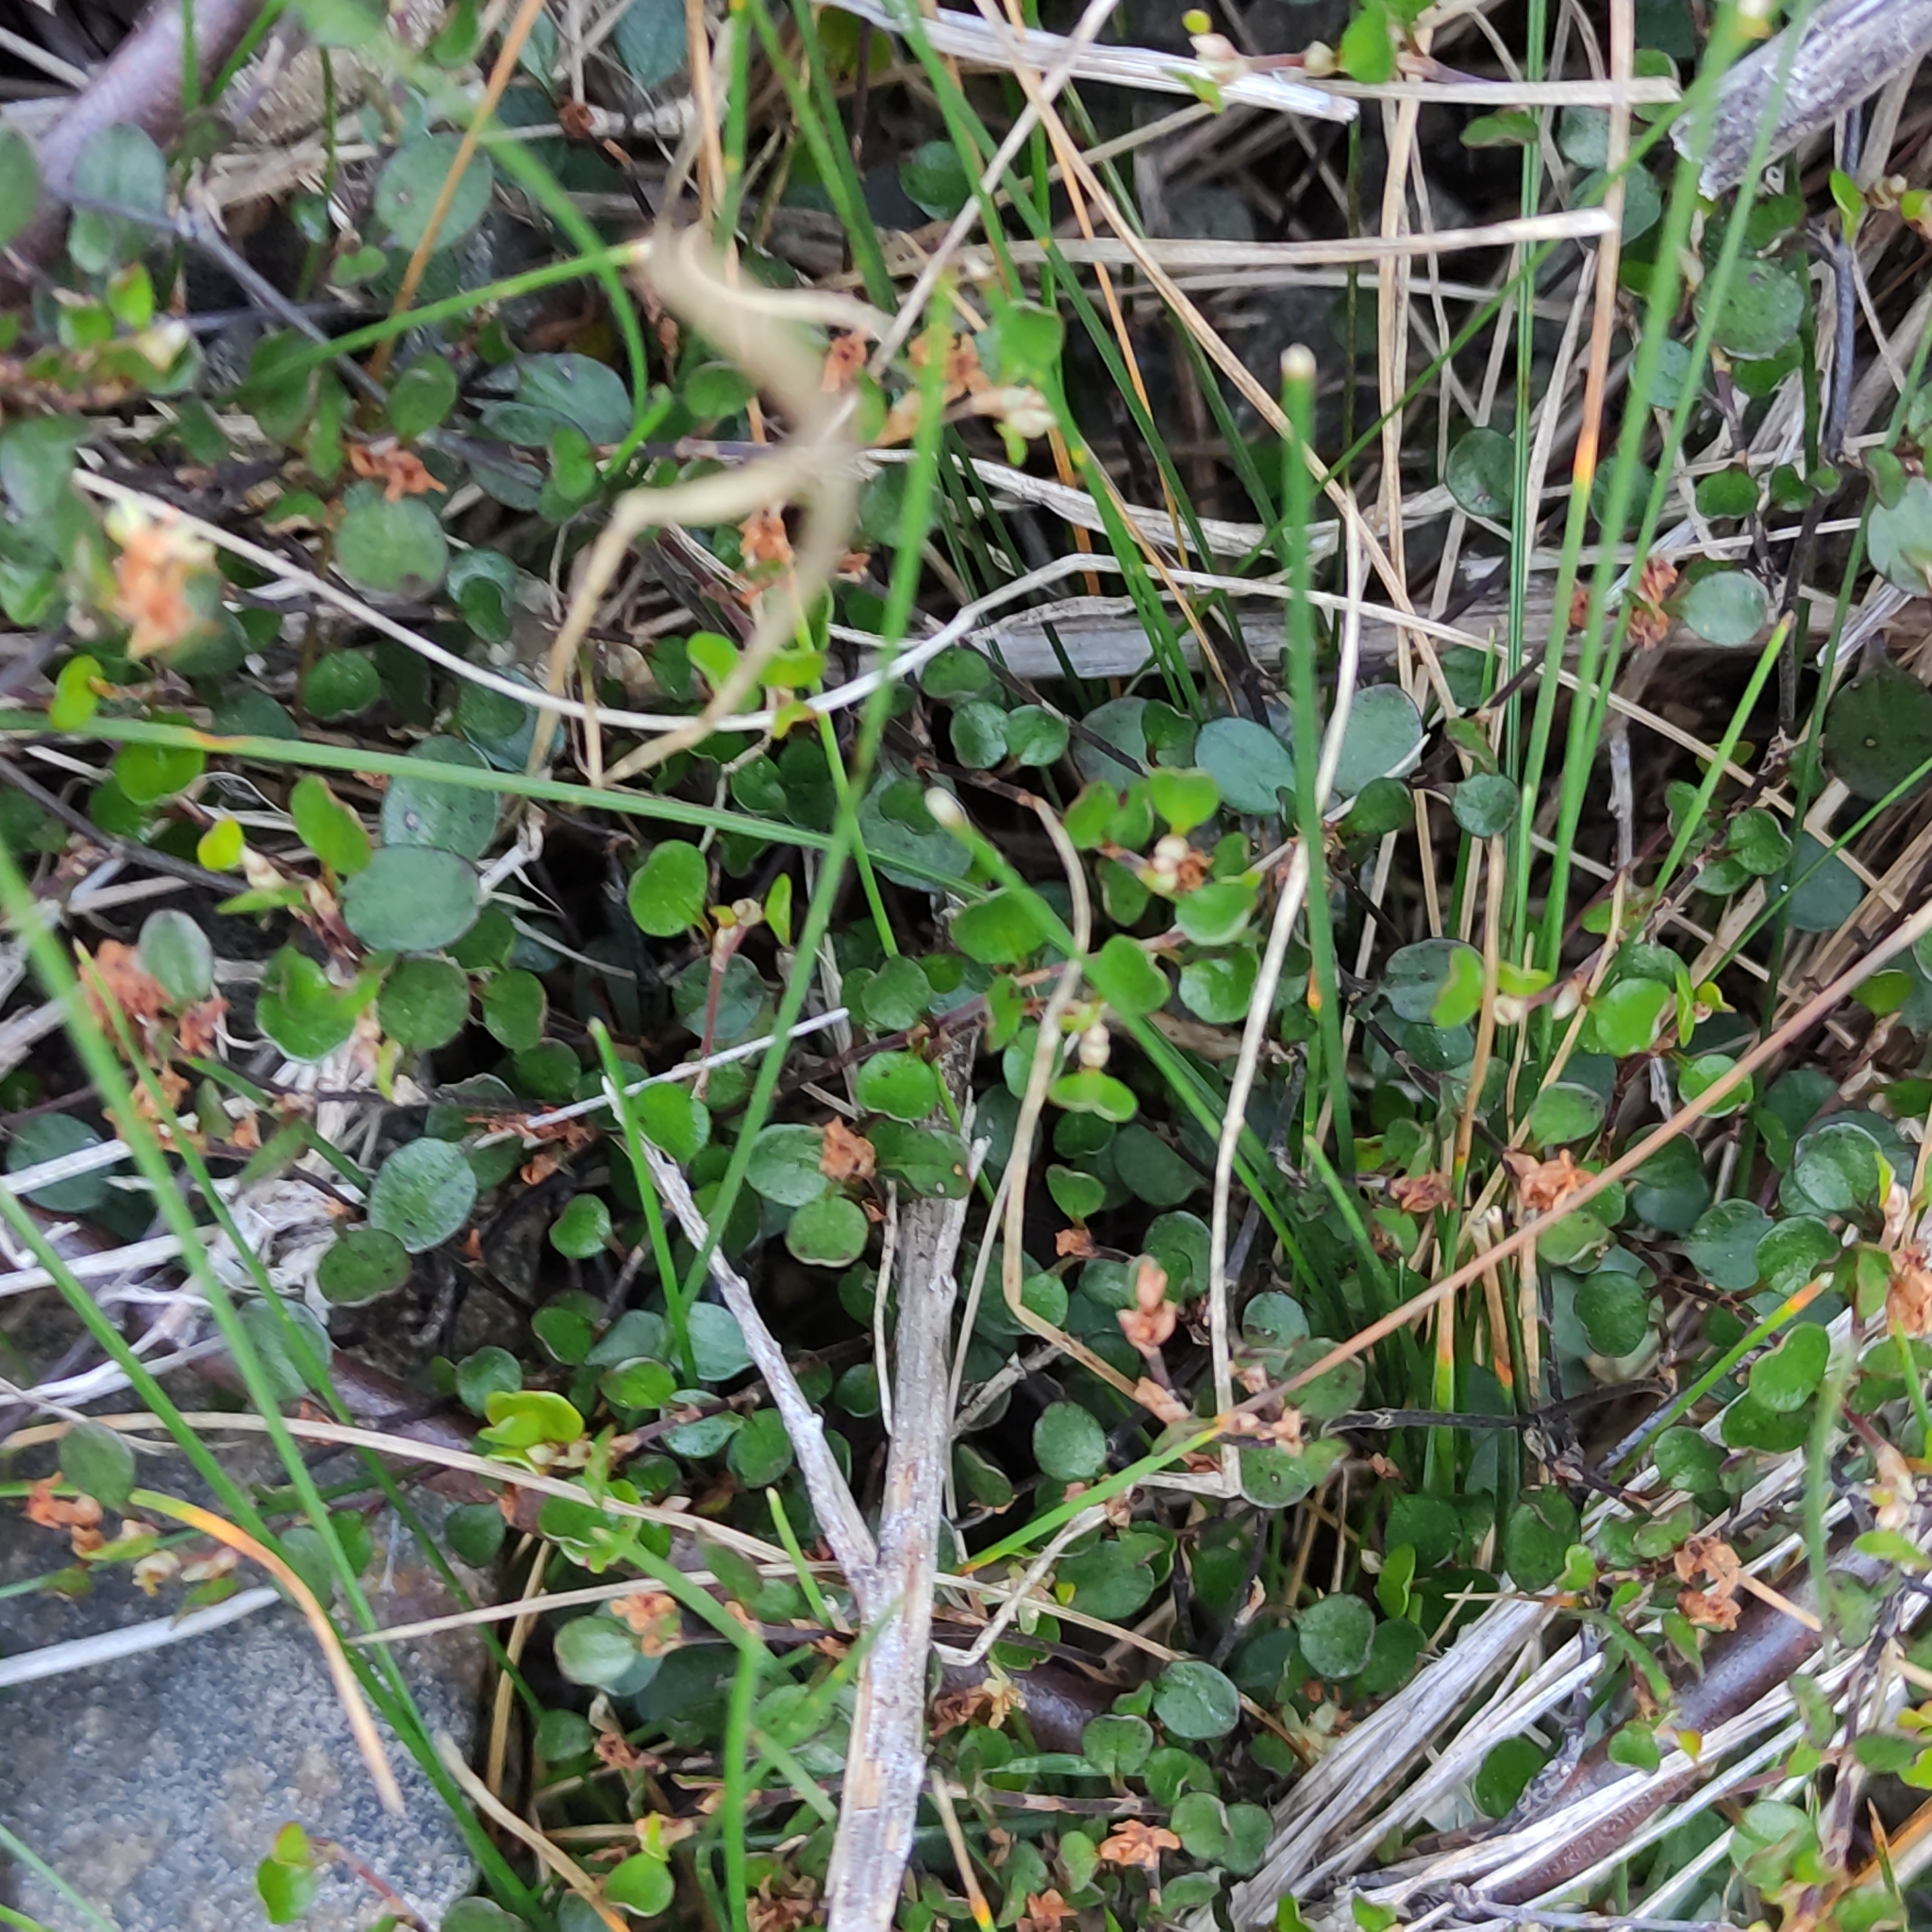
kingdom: Plantae
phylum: Tracheophyta
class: Magnoliopsida
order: Caryophyllales
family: Polygonaceae
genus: Muehlenbeckia
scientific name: Muehlenbeckia axillaris
